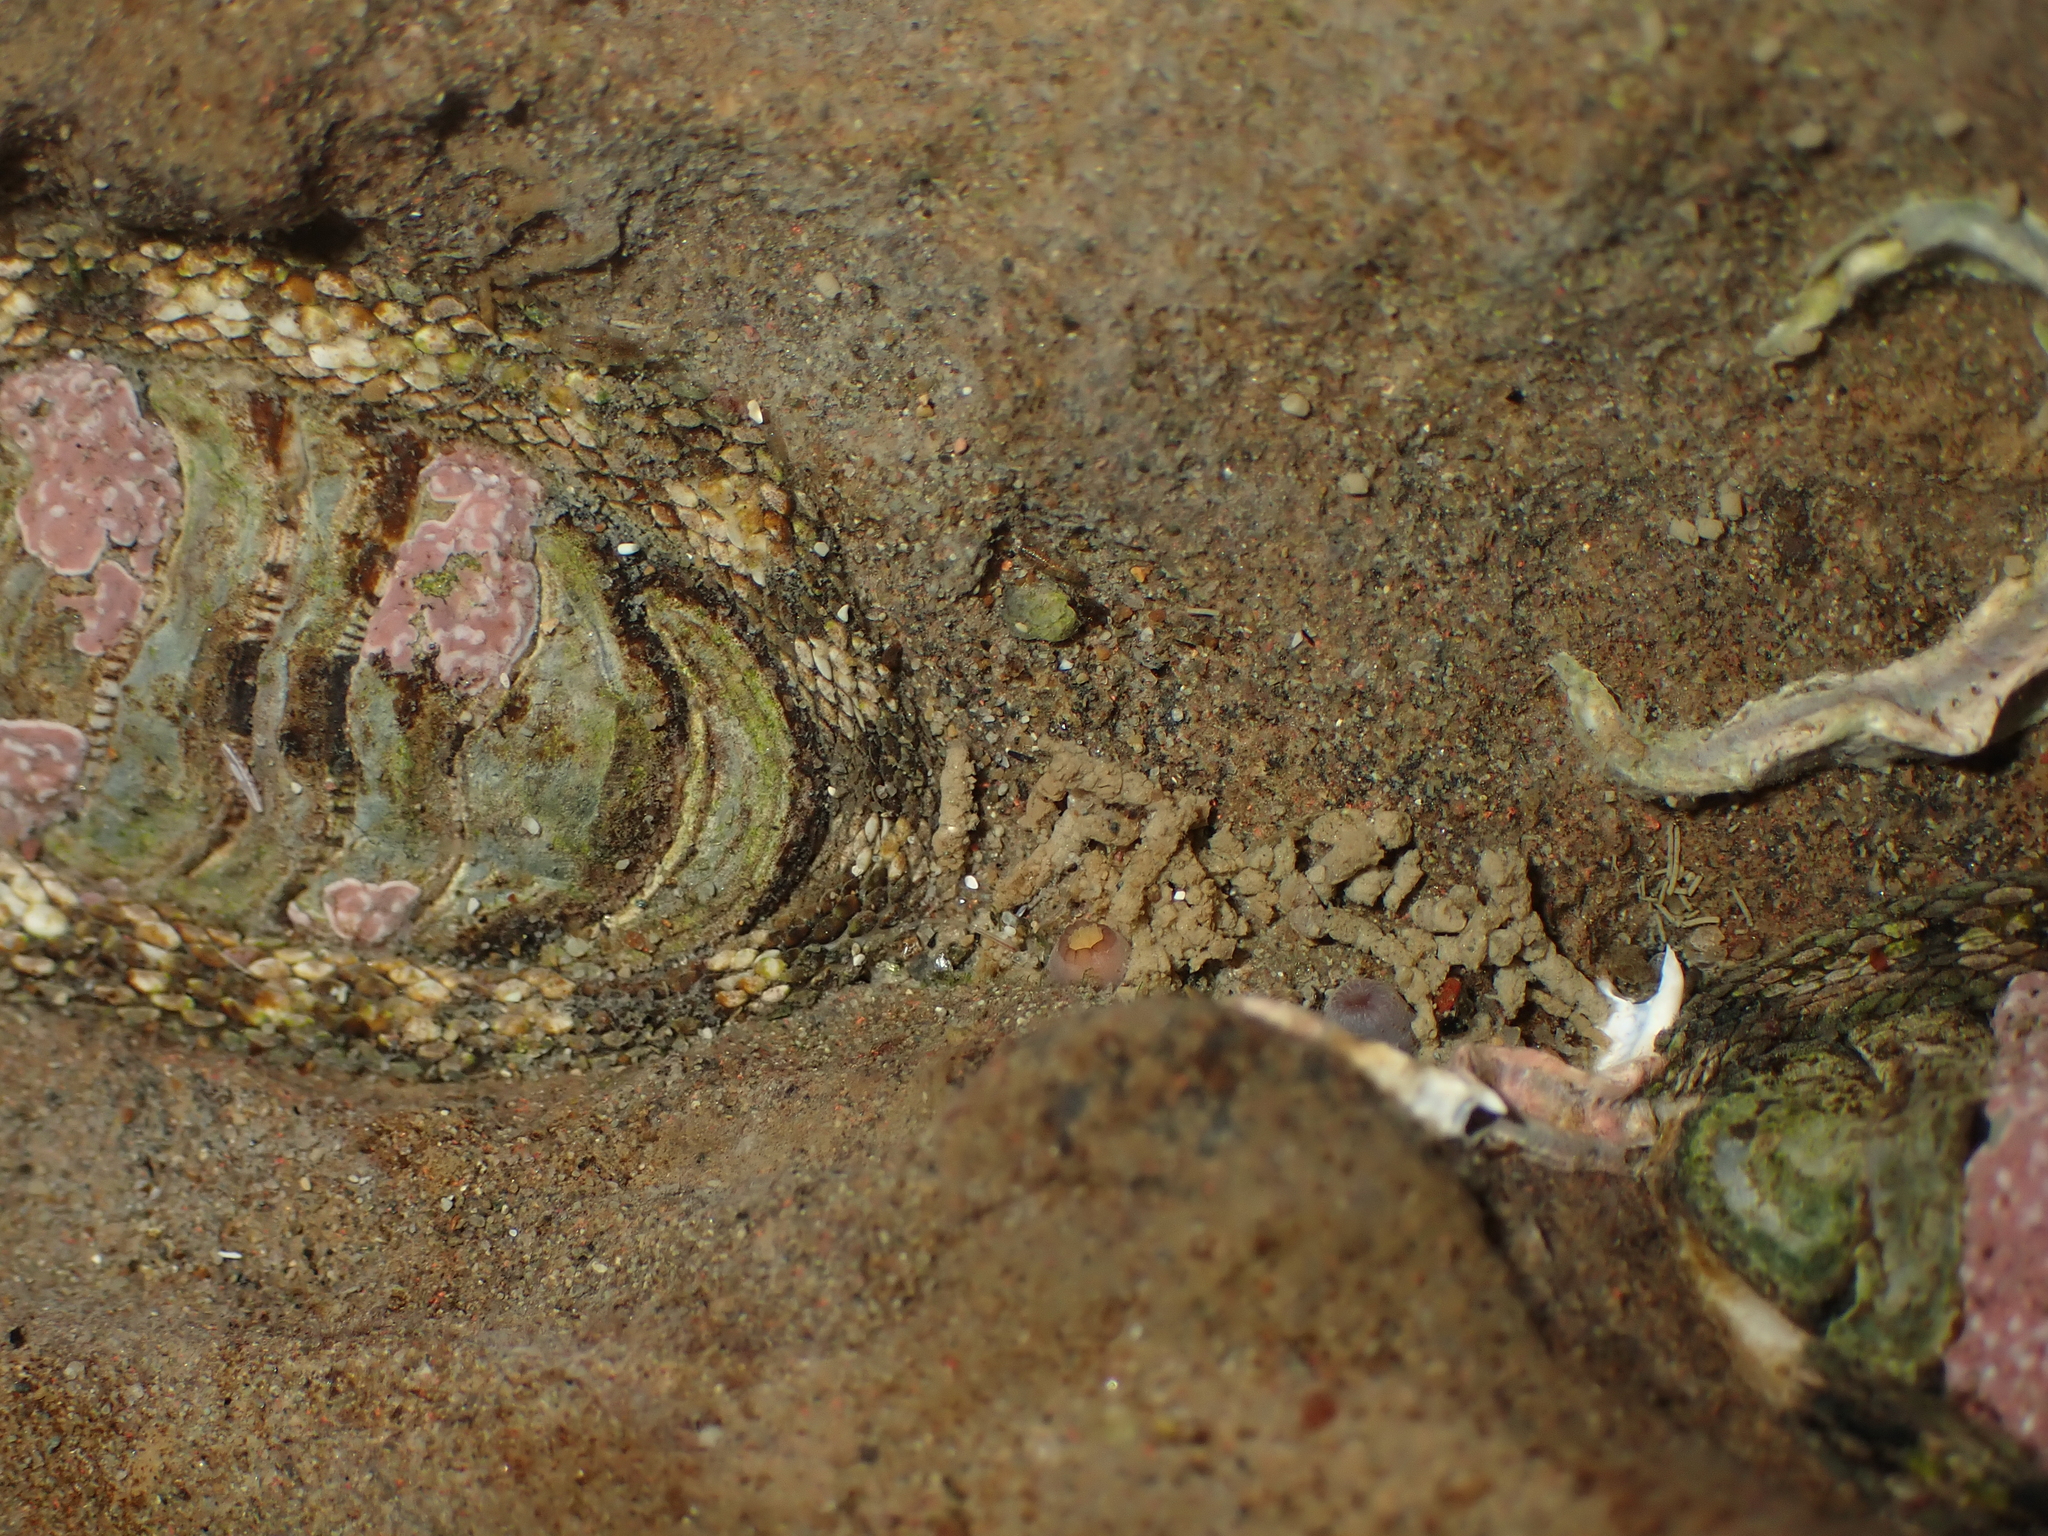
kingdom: Animalia
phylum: Mollusca
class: Polyplacophora
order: Chitonida
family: Chitonidae
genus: Sypharochiton
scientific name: Sypharochiton pelliserpentis
